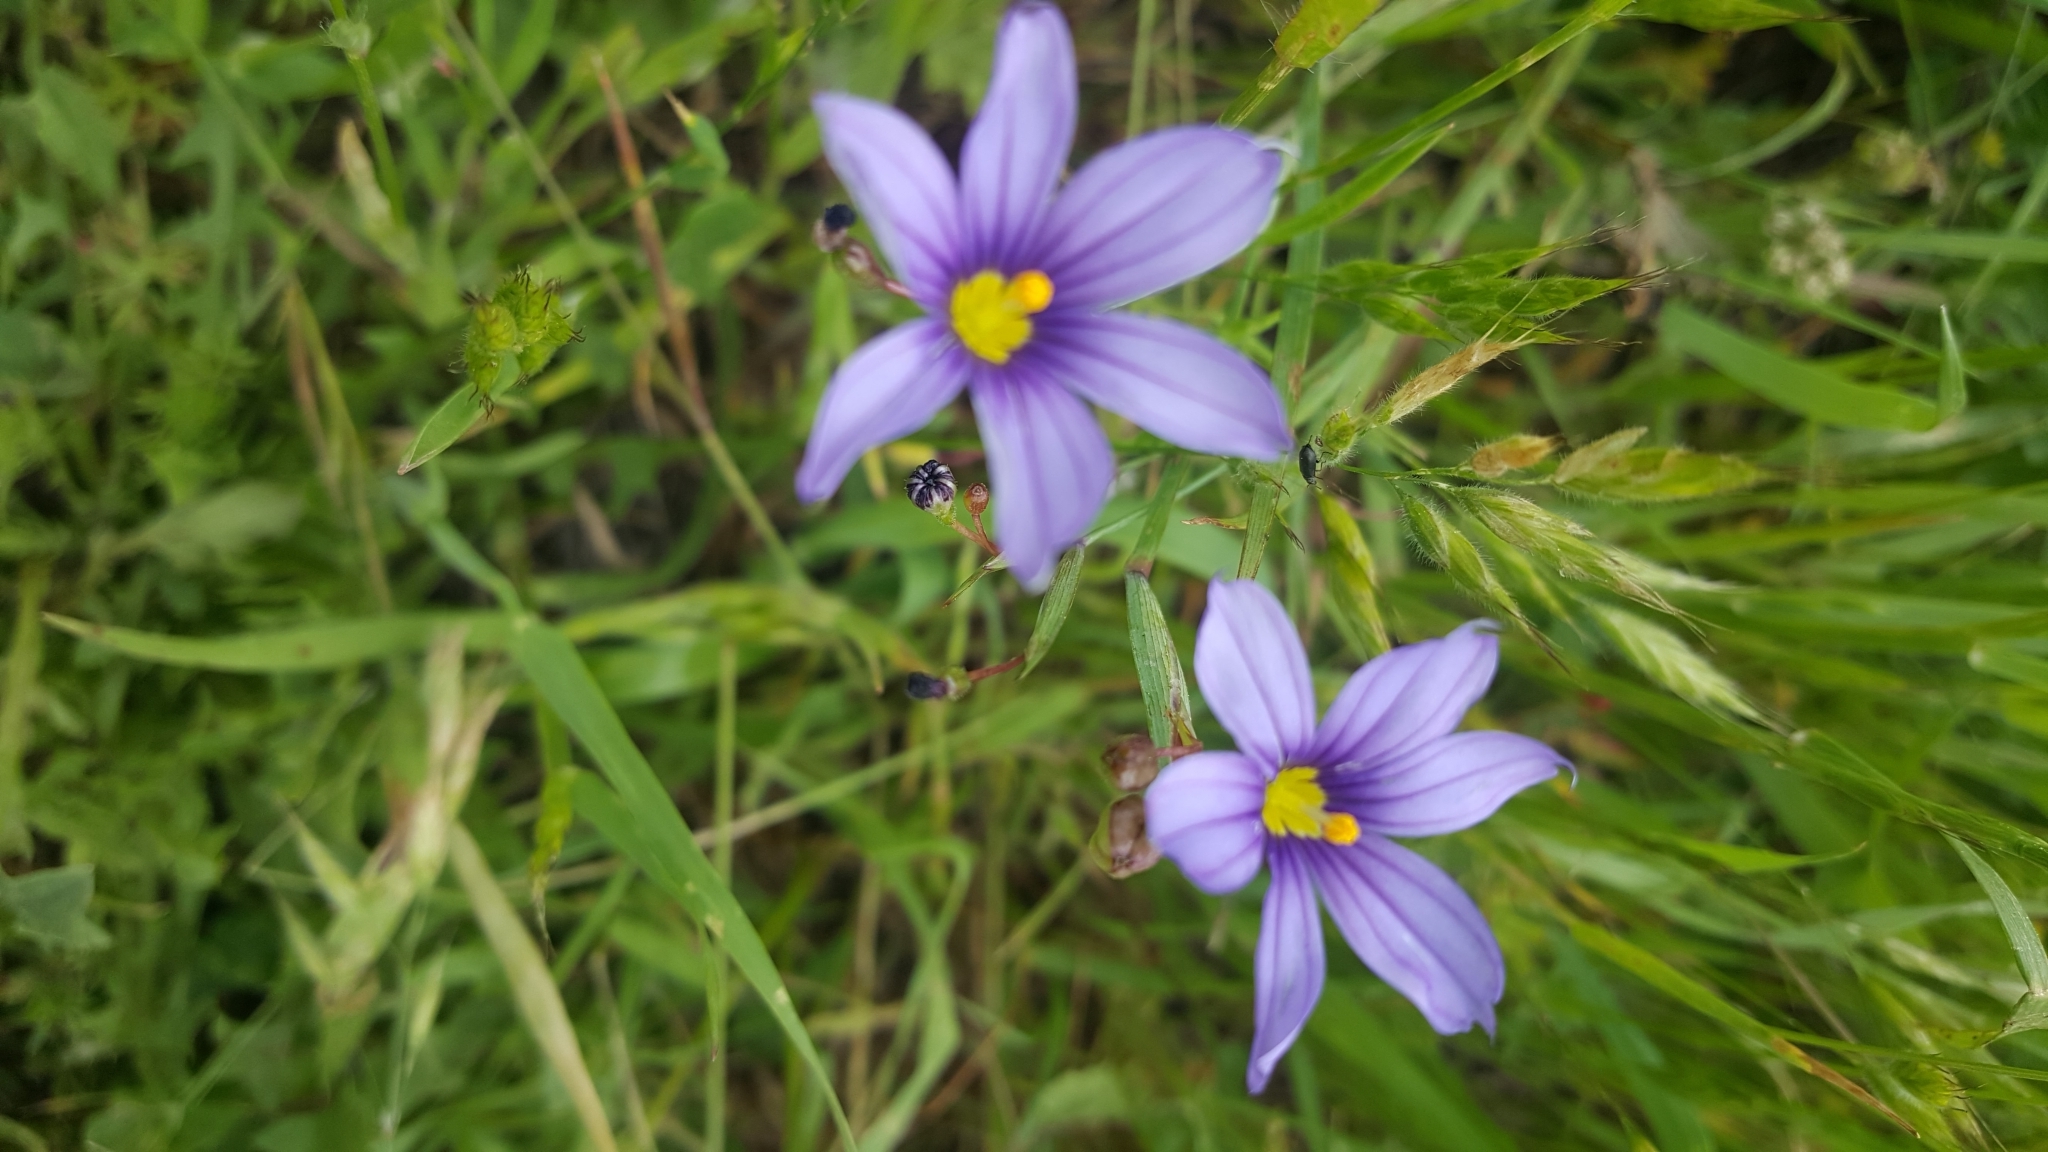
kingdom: Plantae
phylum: Tracheophyta
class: Liliopsida
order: Asparagales
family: Iridaceae
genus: Sisyrinchium
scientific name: Sisyrinchium bellum
